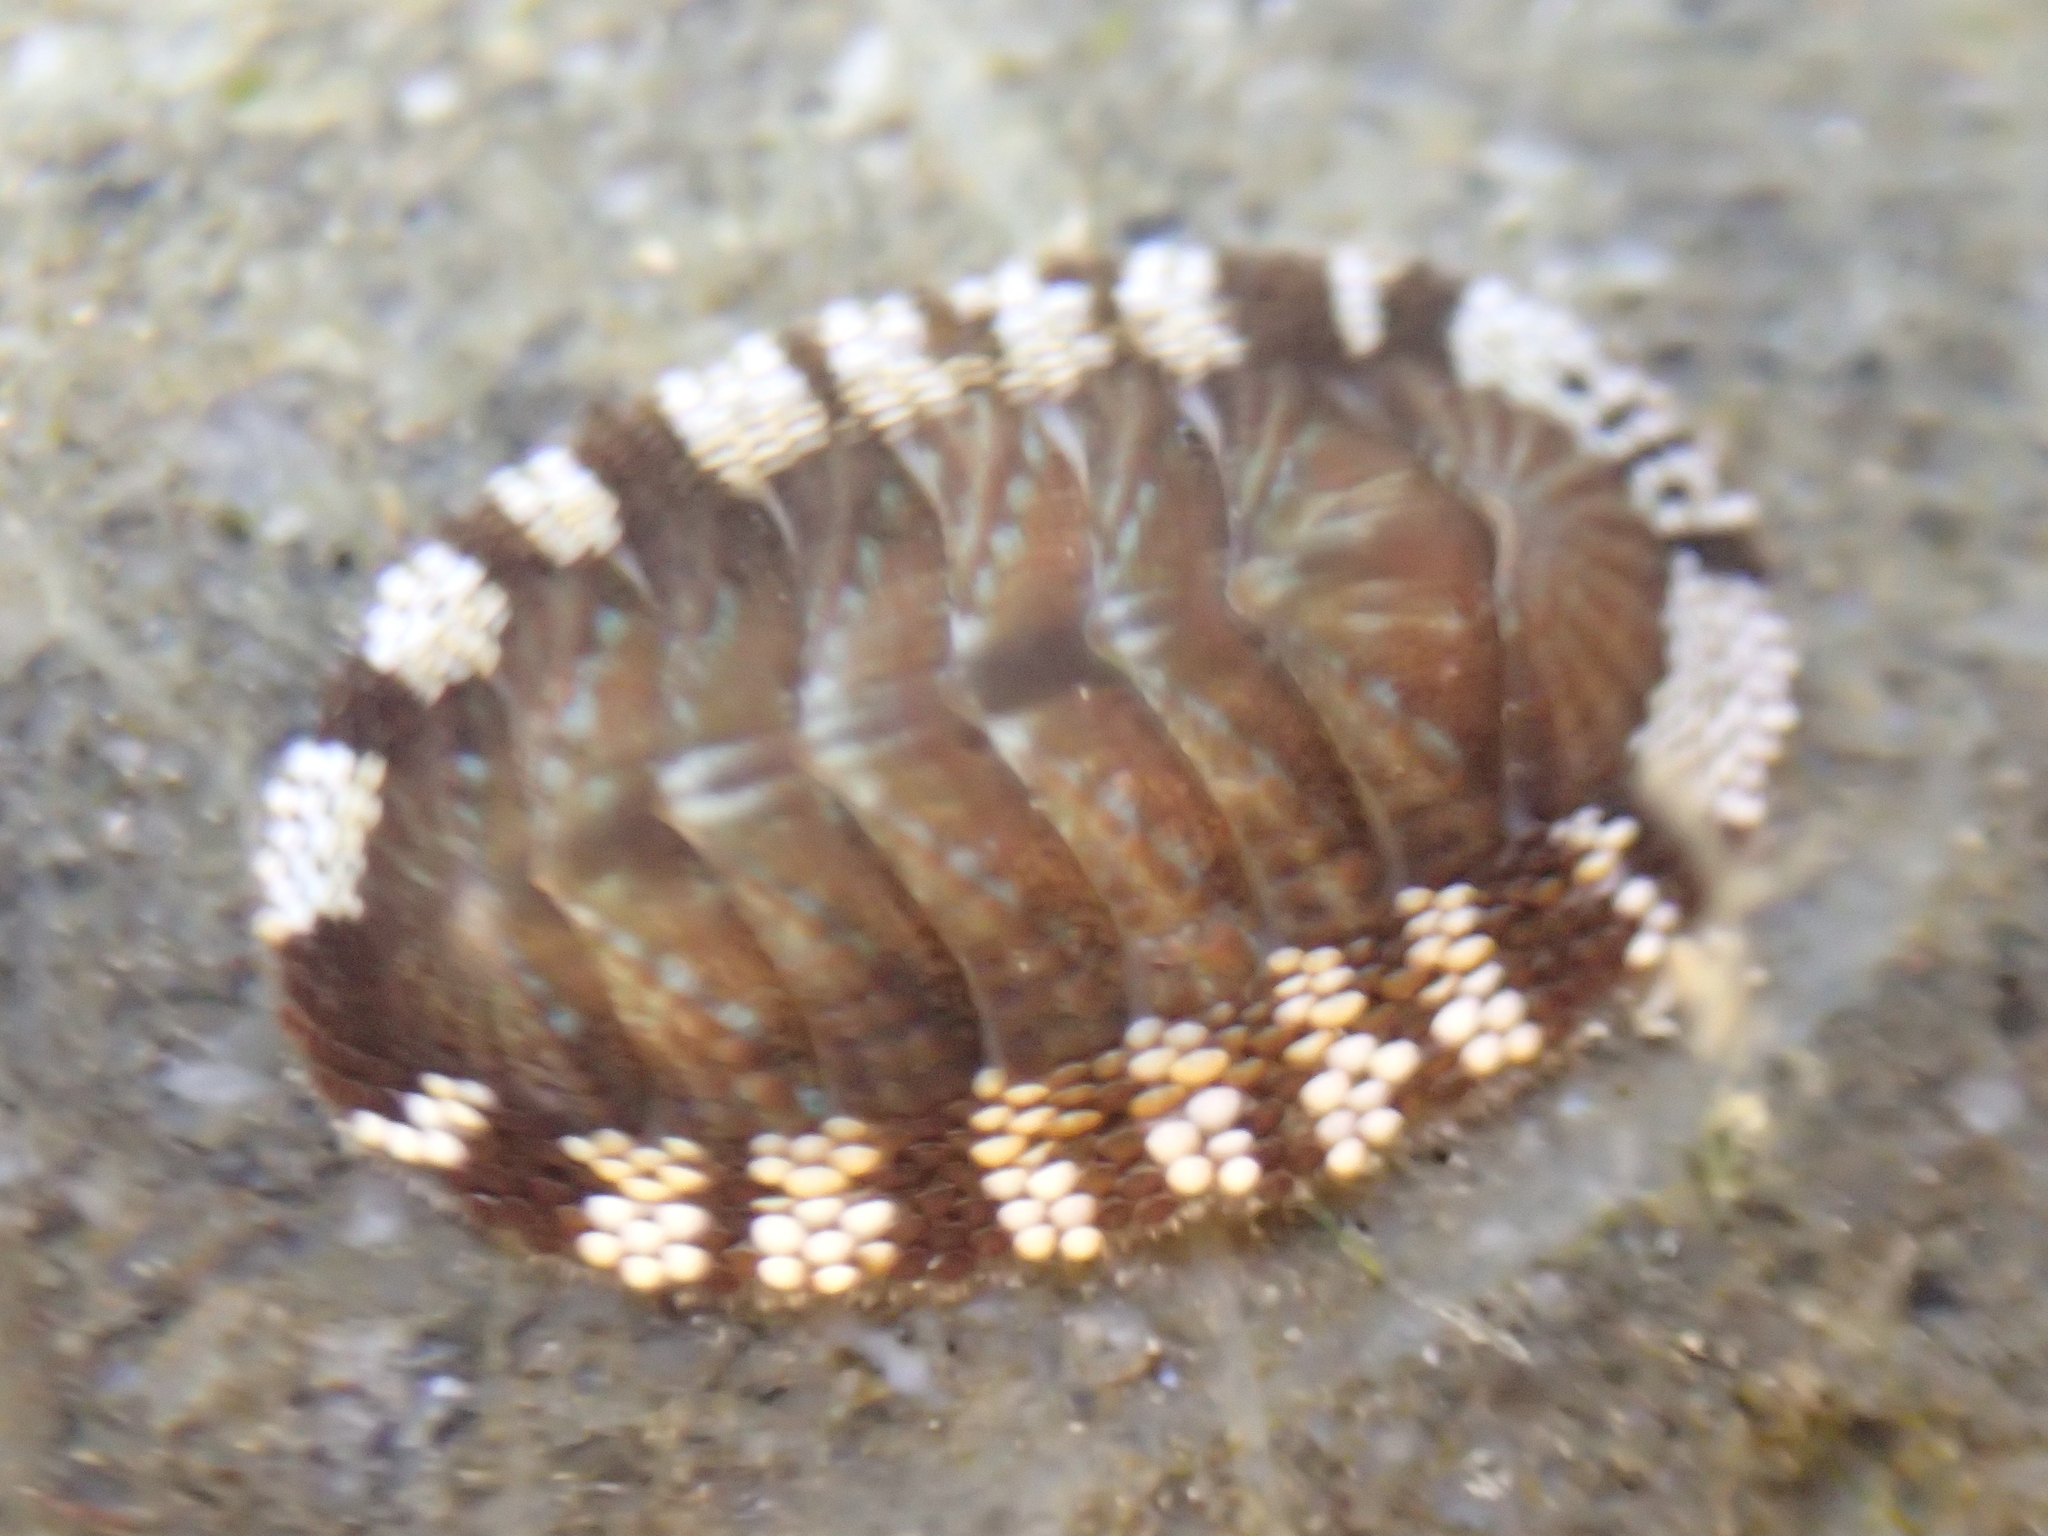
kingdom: Animalia
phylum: Mollusca
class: Polyplacophora
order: Chitonida
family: Chitonidae
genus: Sypharochiton
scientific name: Sypharochiton sinclairi
